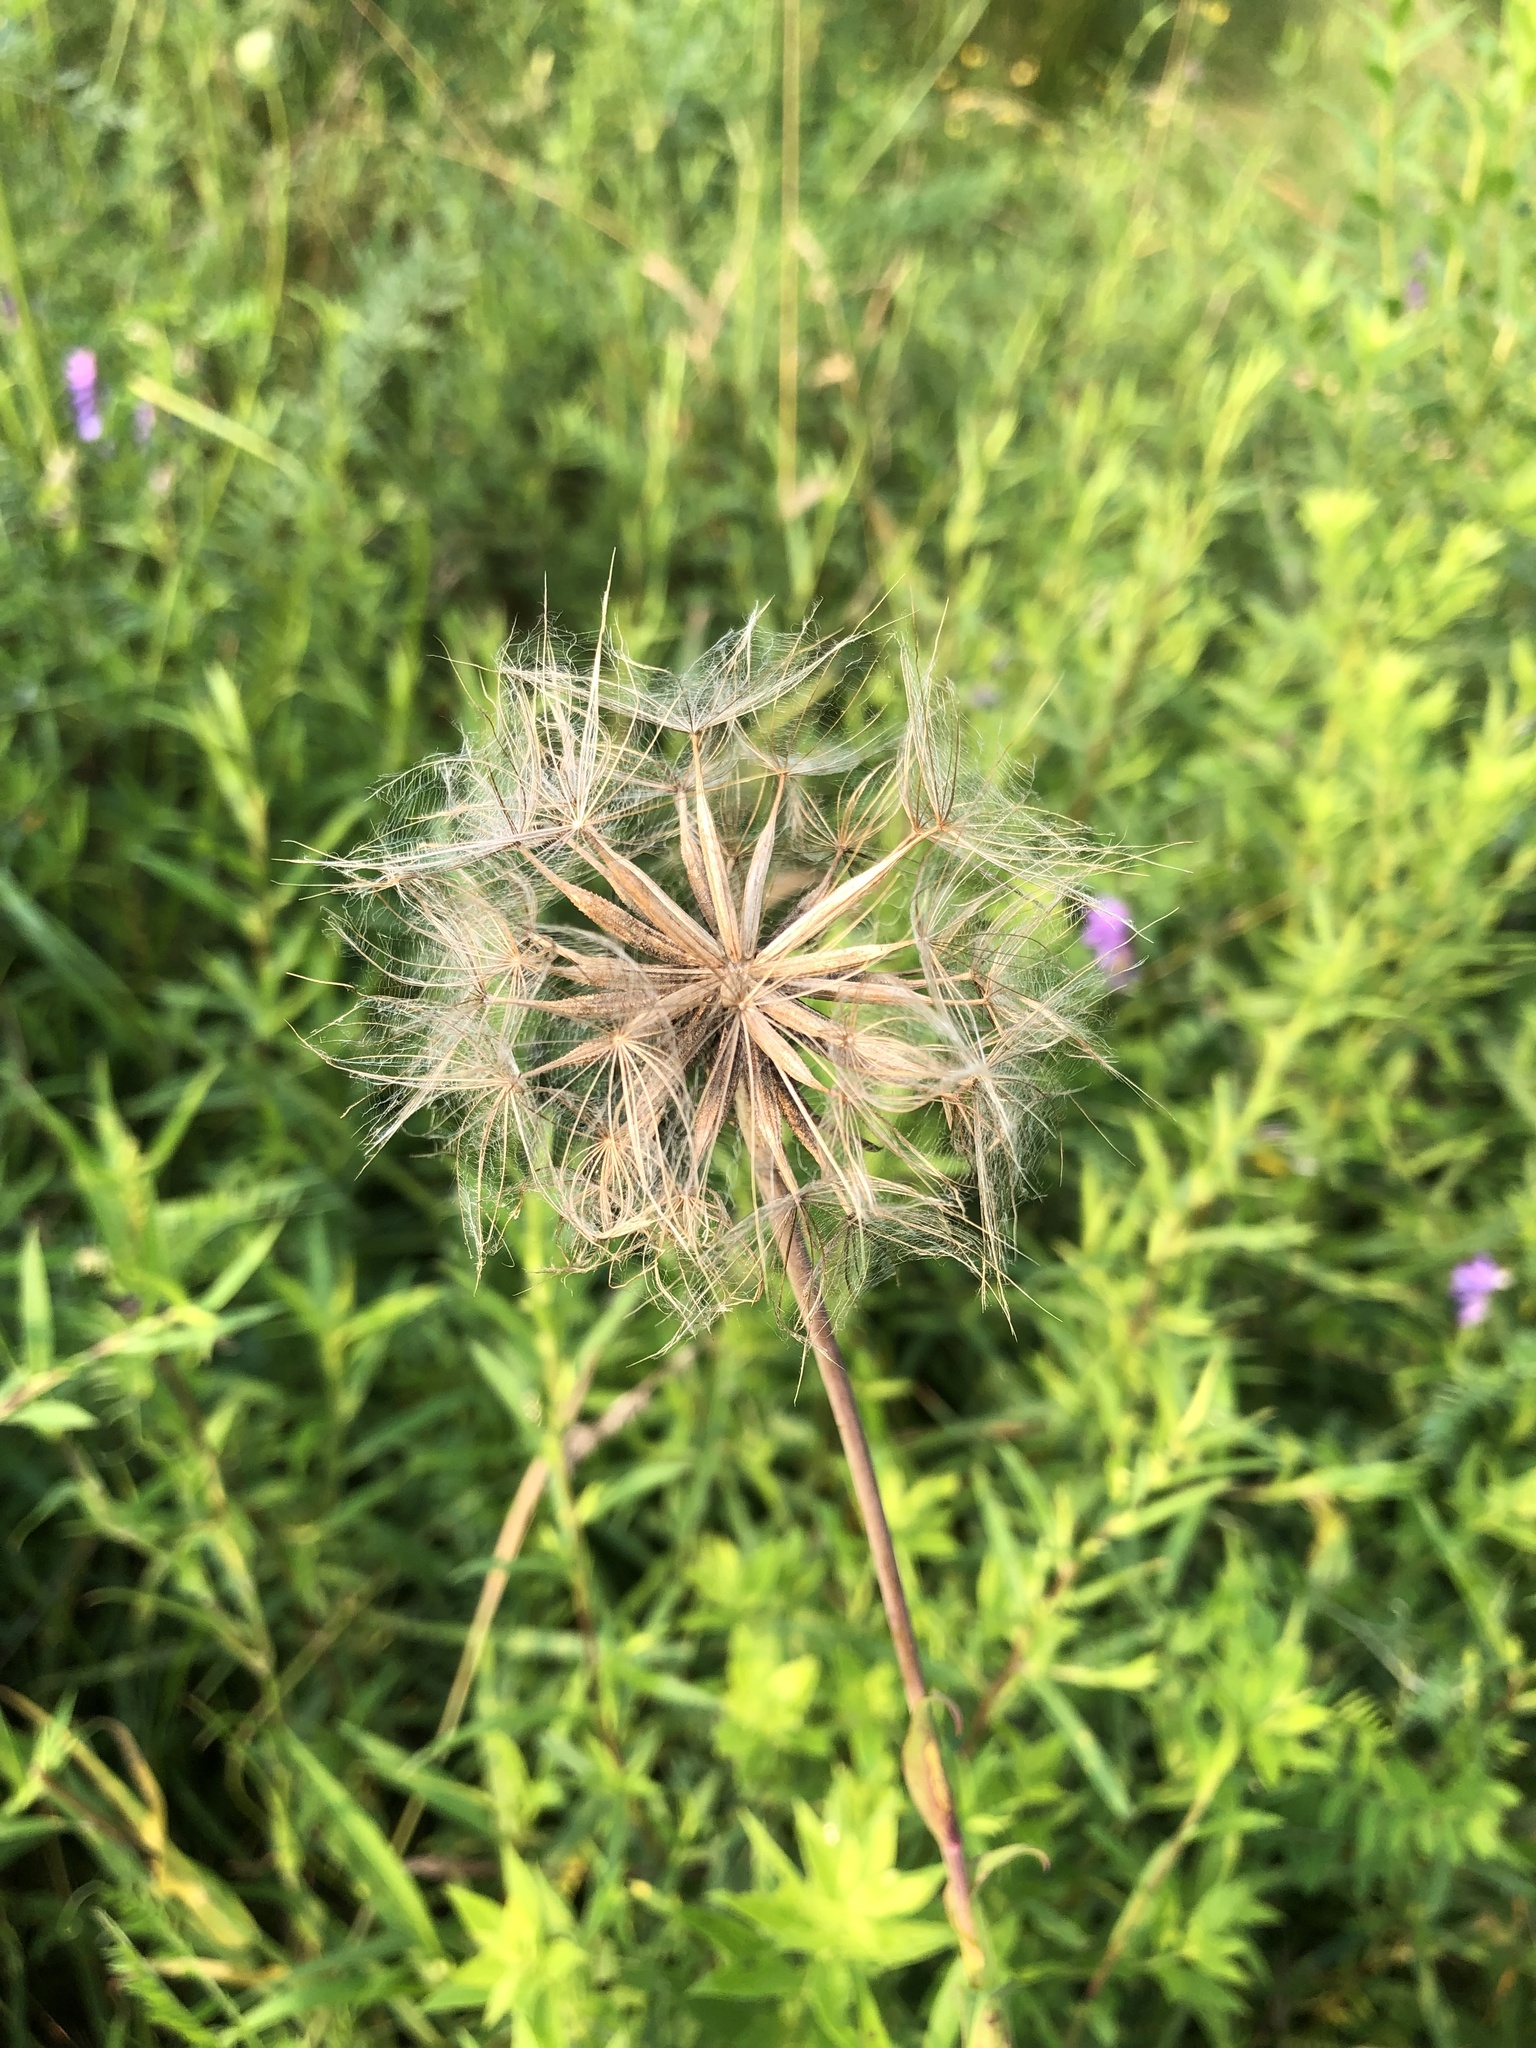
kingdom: Plantae
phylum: Tracheophyta
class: Magnoliopsida
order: Asterales
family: Asteraceae
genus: Tragopogon
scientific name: Tragopogon pratensis
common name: Goat's-beard
